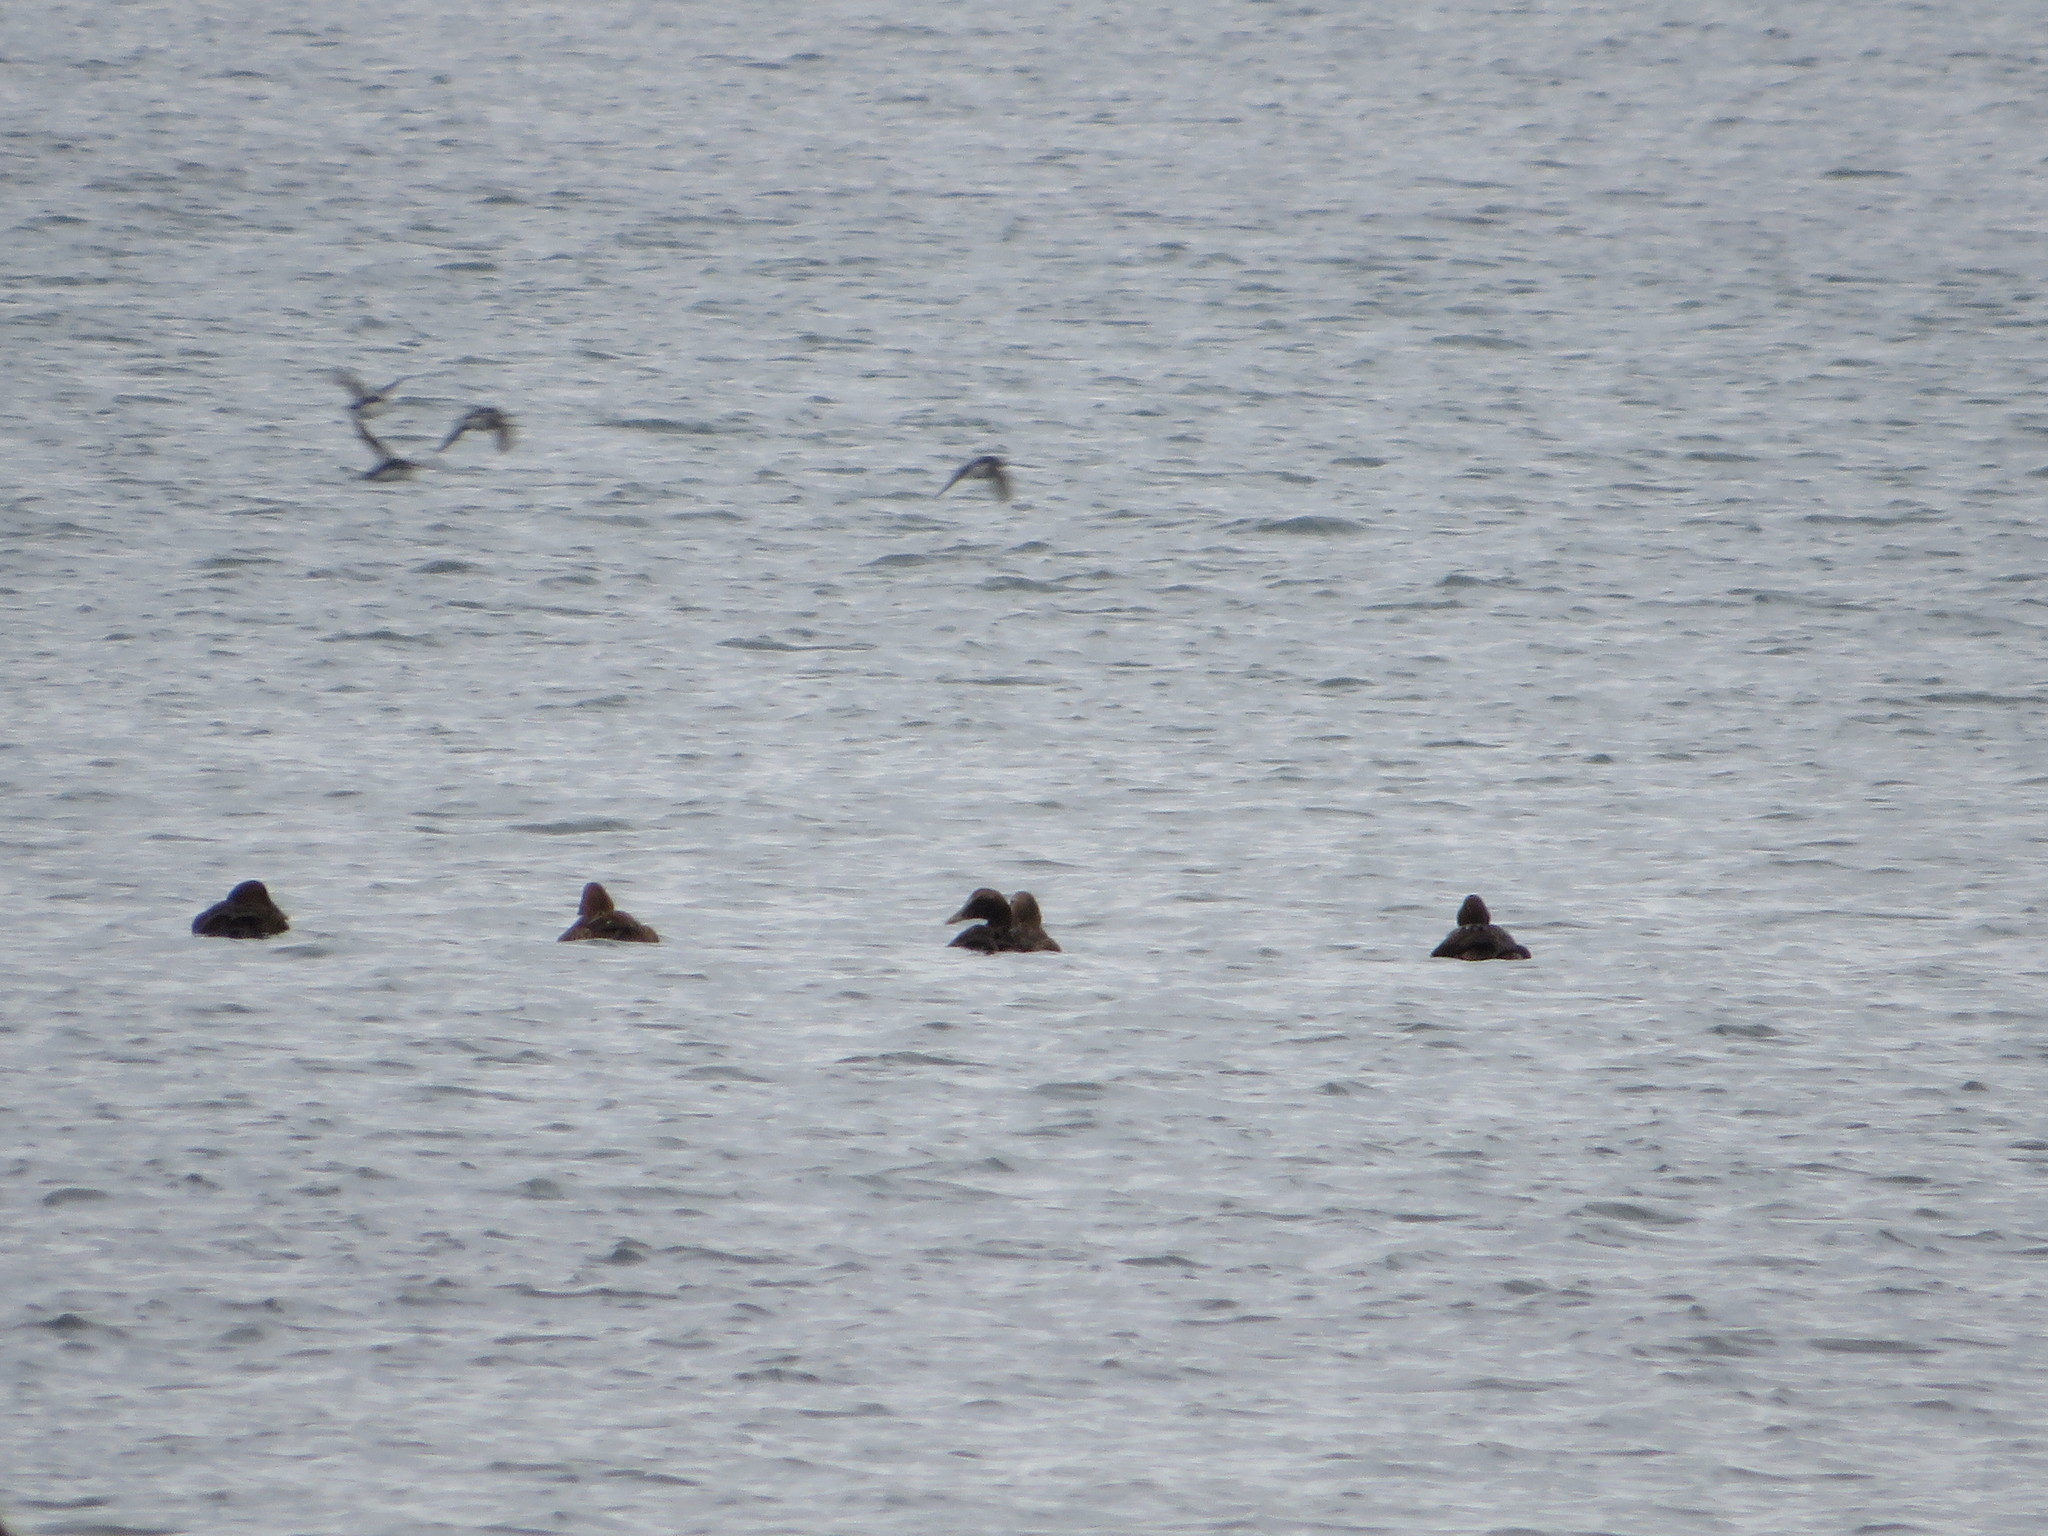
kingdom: Animalia
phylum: Chordata
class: Aves
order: Anseriformes
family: Anatidae
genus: Somateria
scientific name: Somateria mollissima
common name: Common eider
